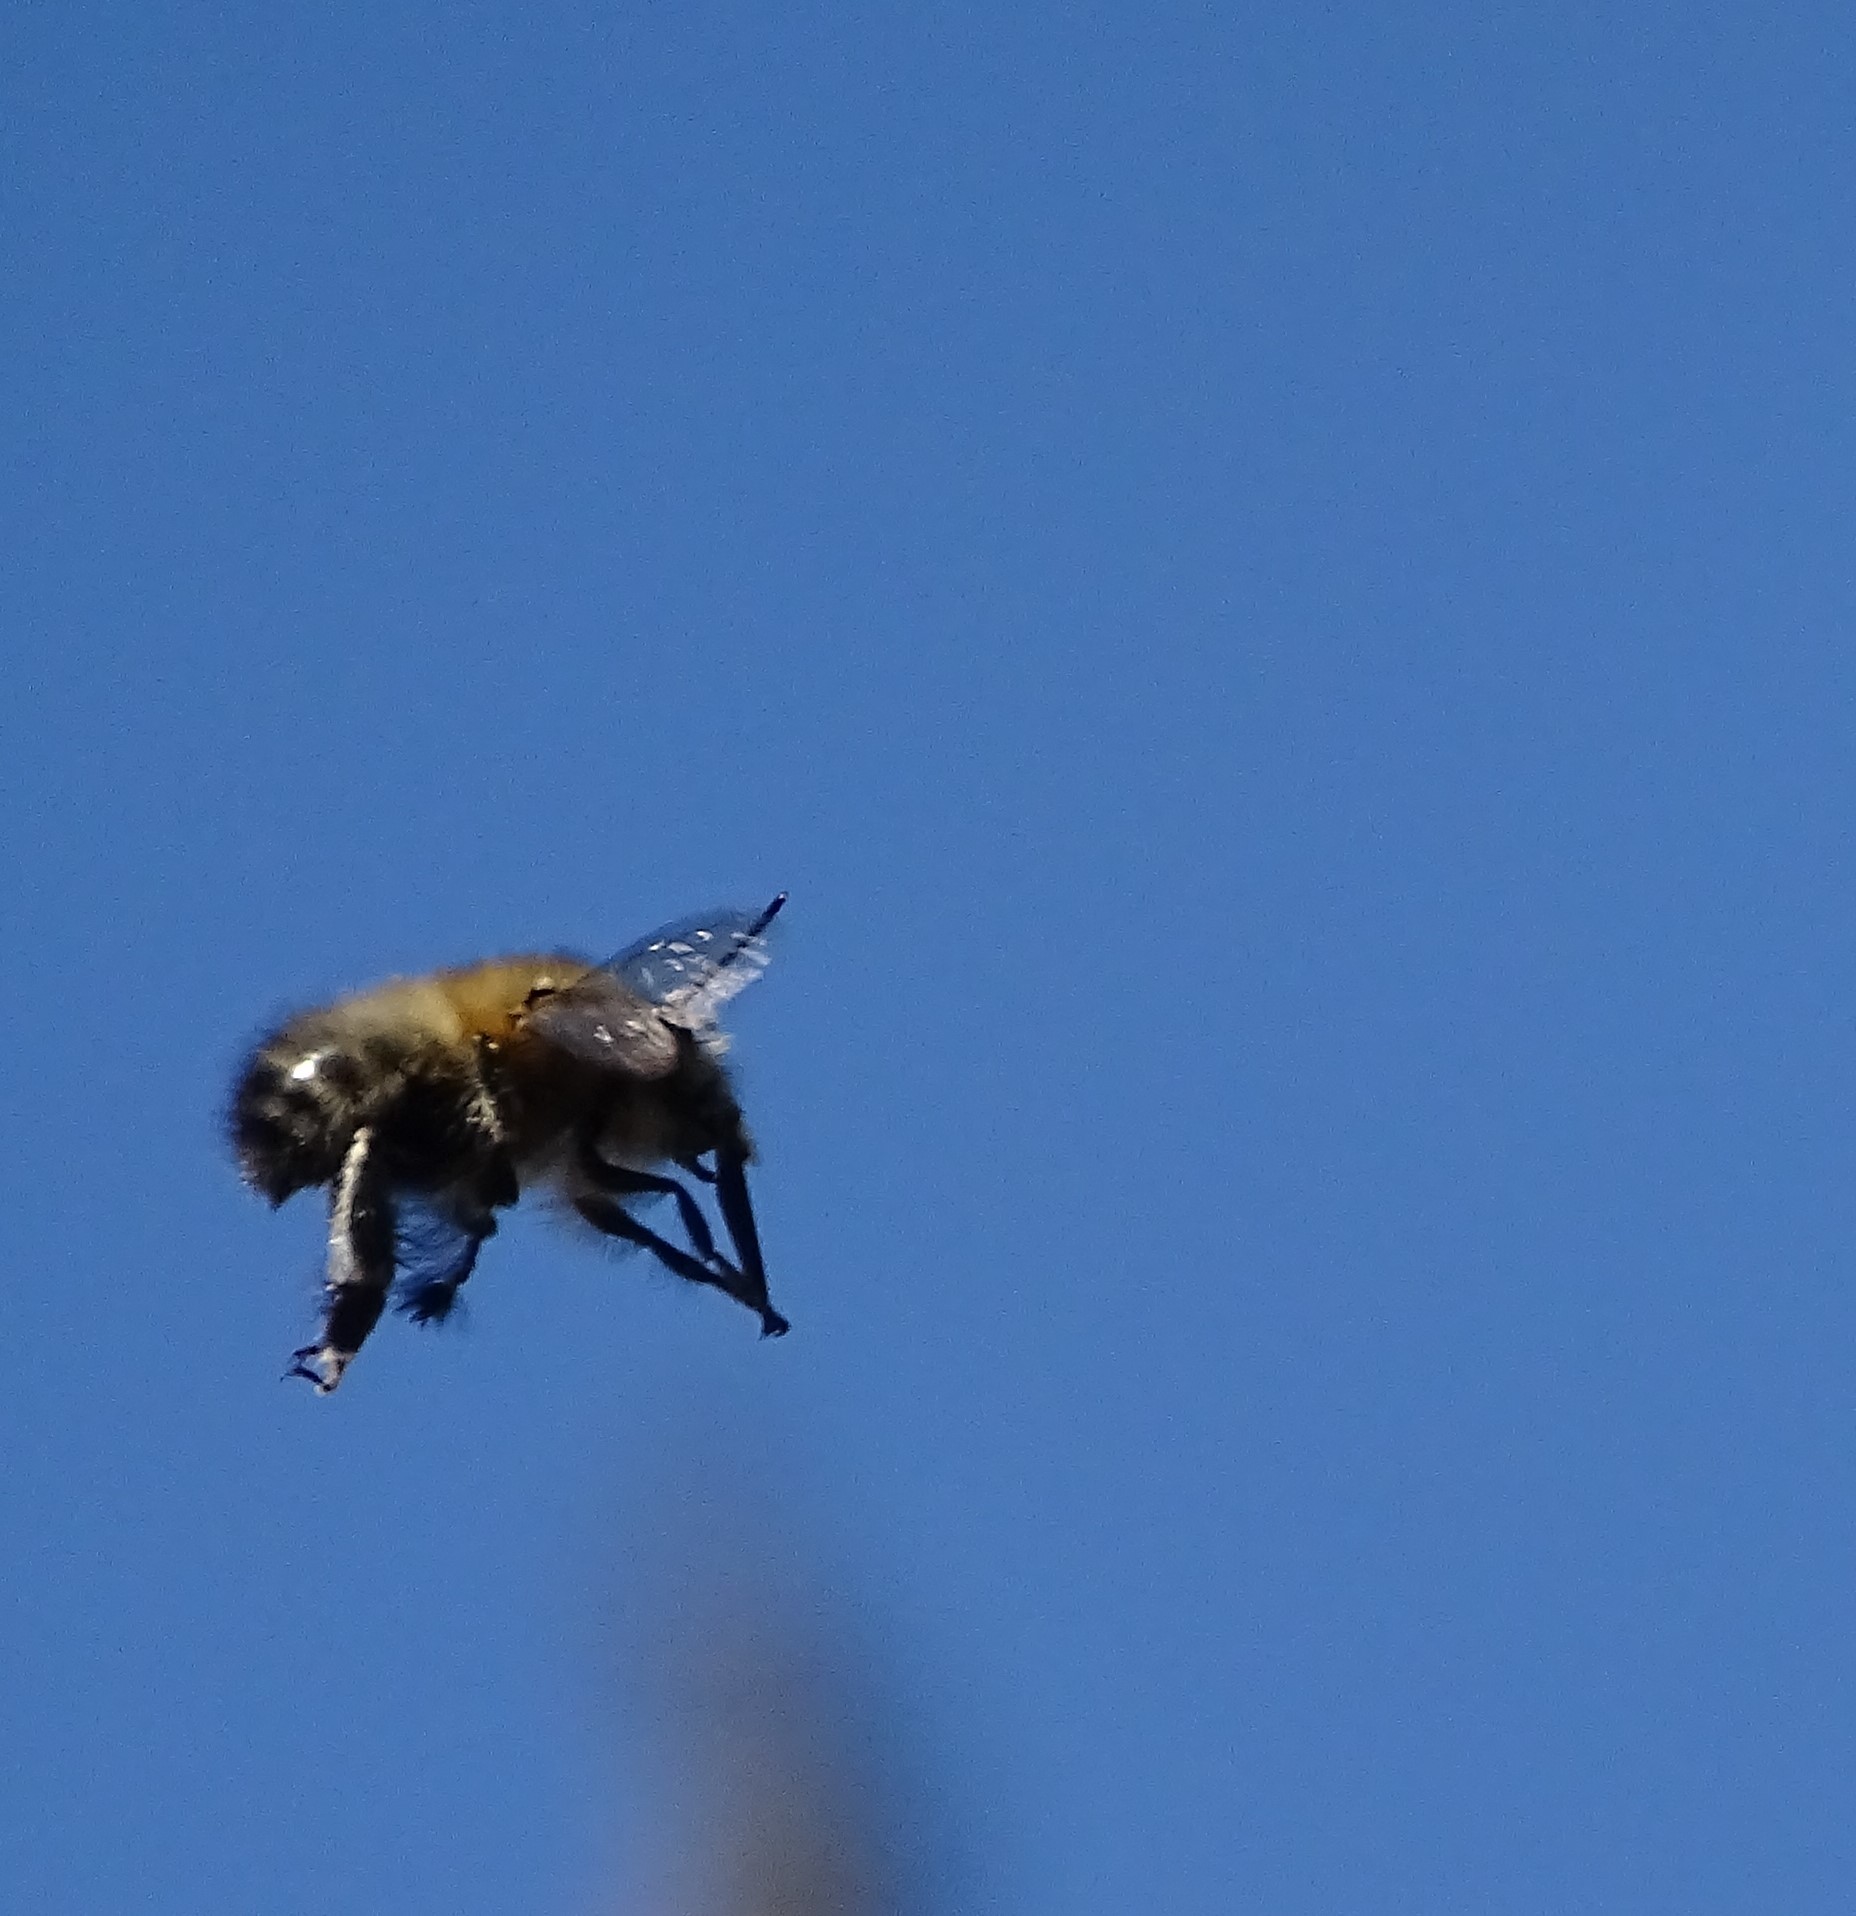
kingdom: Animalia
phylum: Arthropoda
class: Insecta
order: Hymenoptera
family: Apidae
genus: Anthophora
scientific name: Anthophora plumipes
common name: Hairy-footed flower bee
